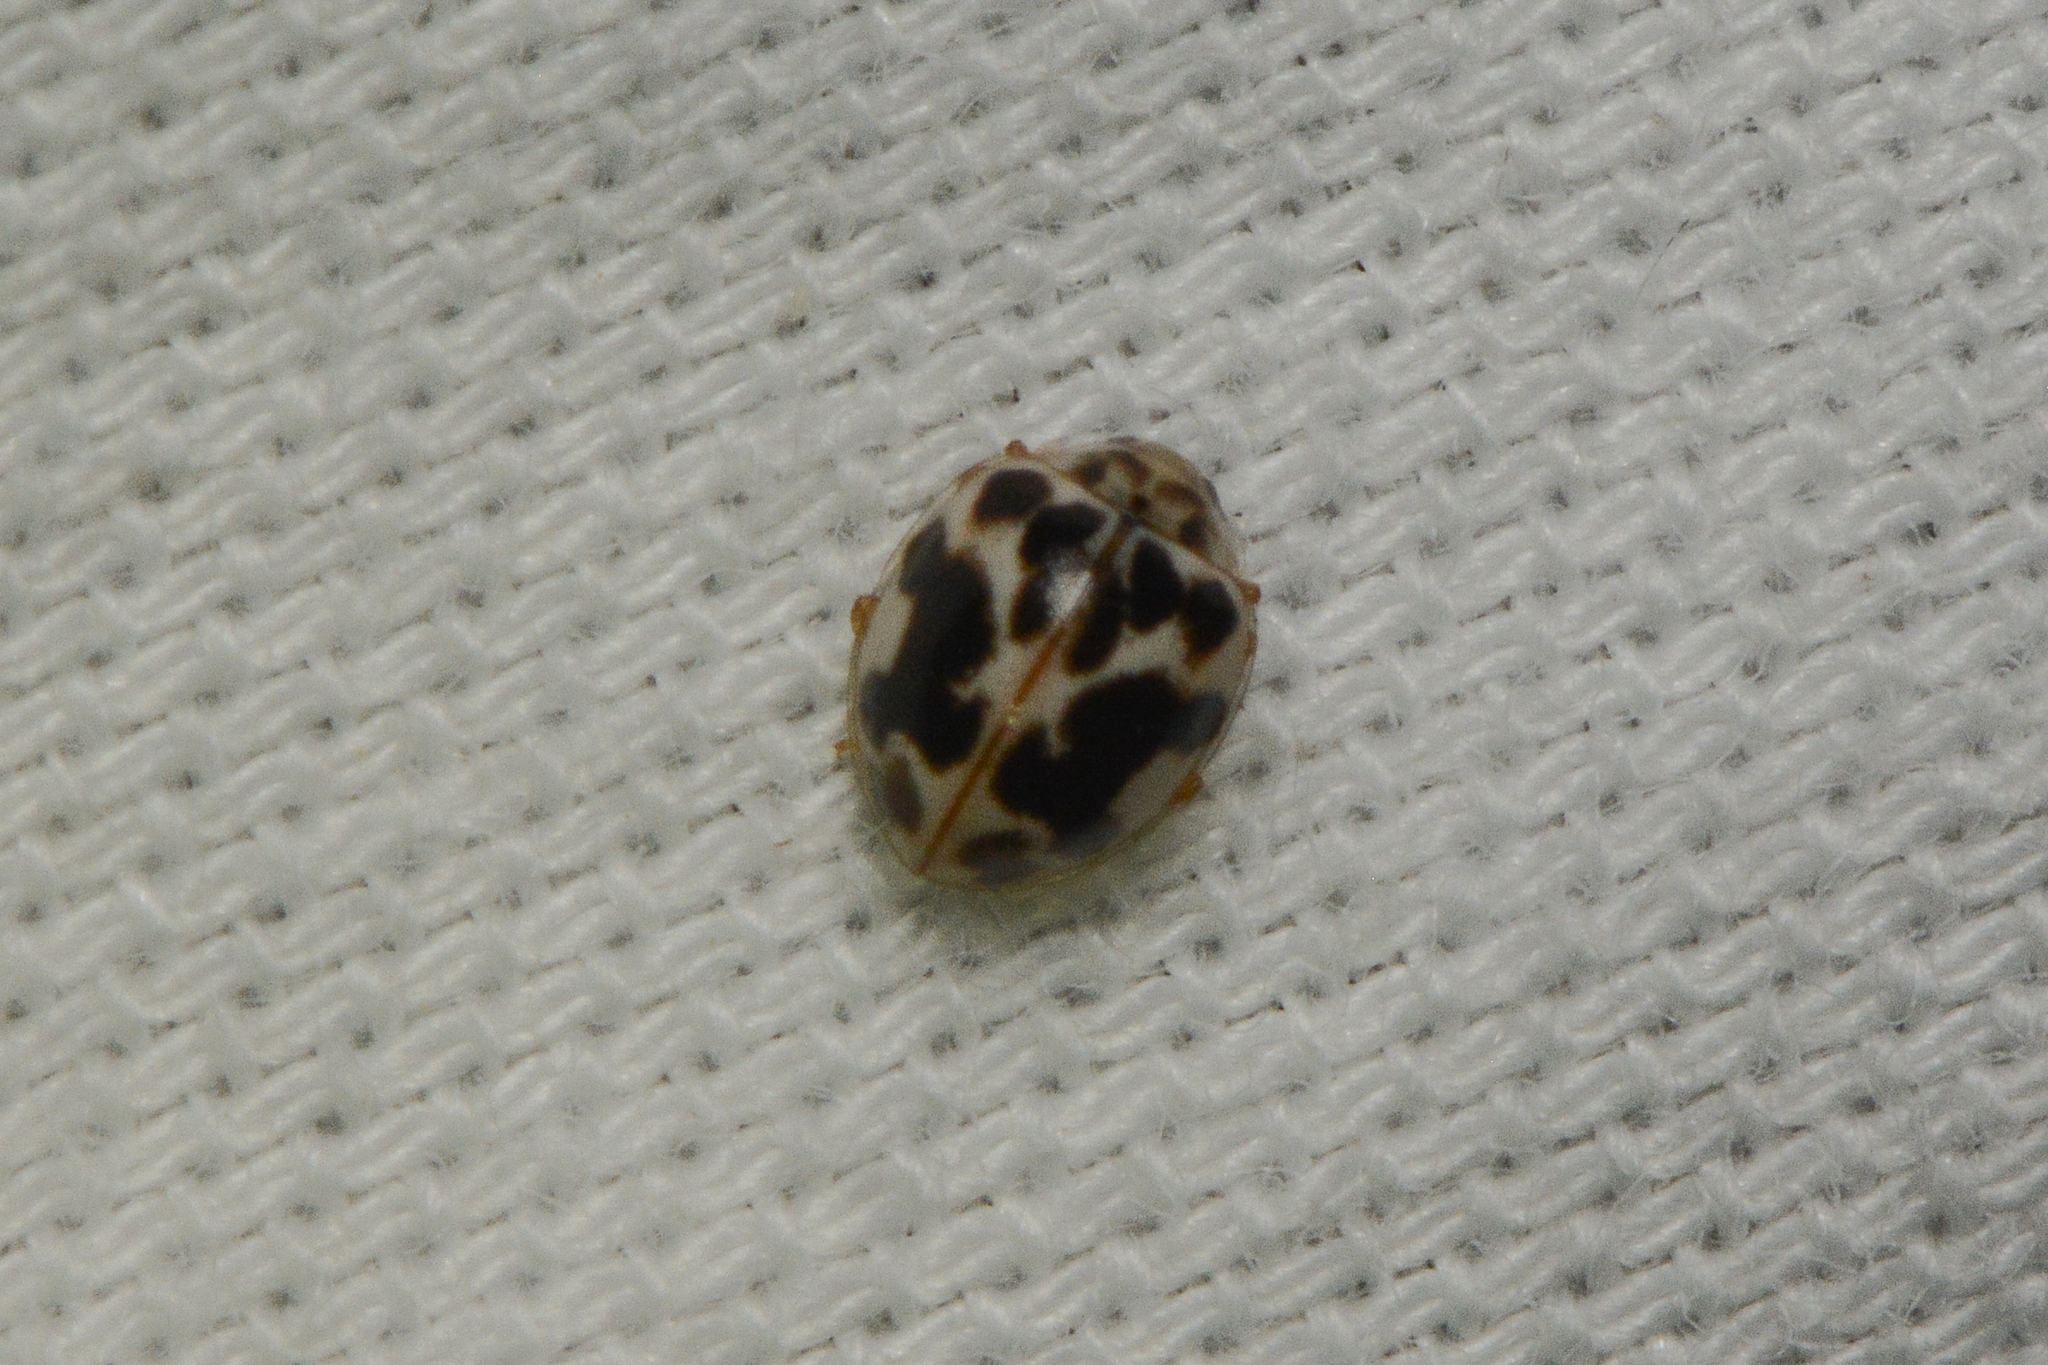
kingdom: Animalia
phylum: Arthropoda
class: Insecta
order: Coleoptera
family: Coccinellidae
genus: Psyllobora
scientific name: Psyllobora vigintimaculata
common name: Ladybird beetle
